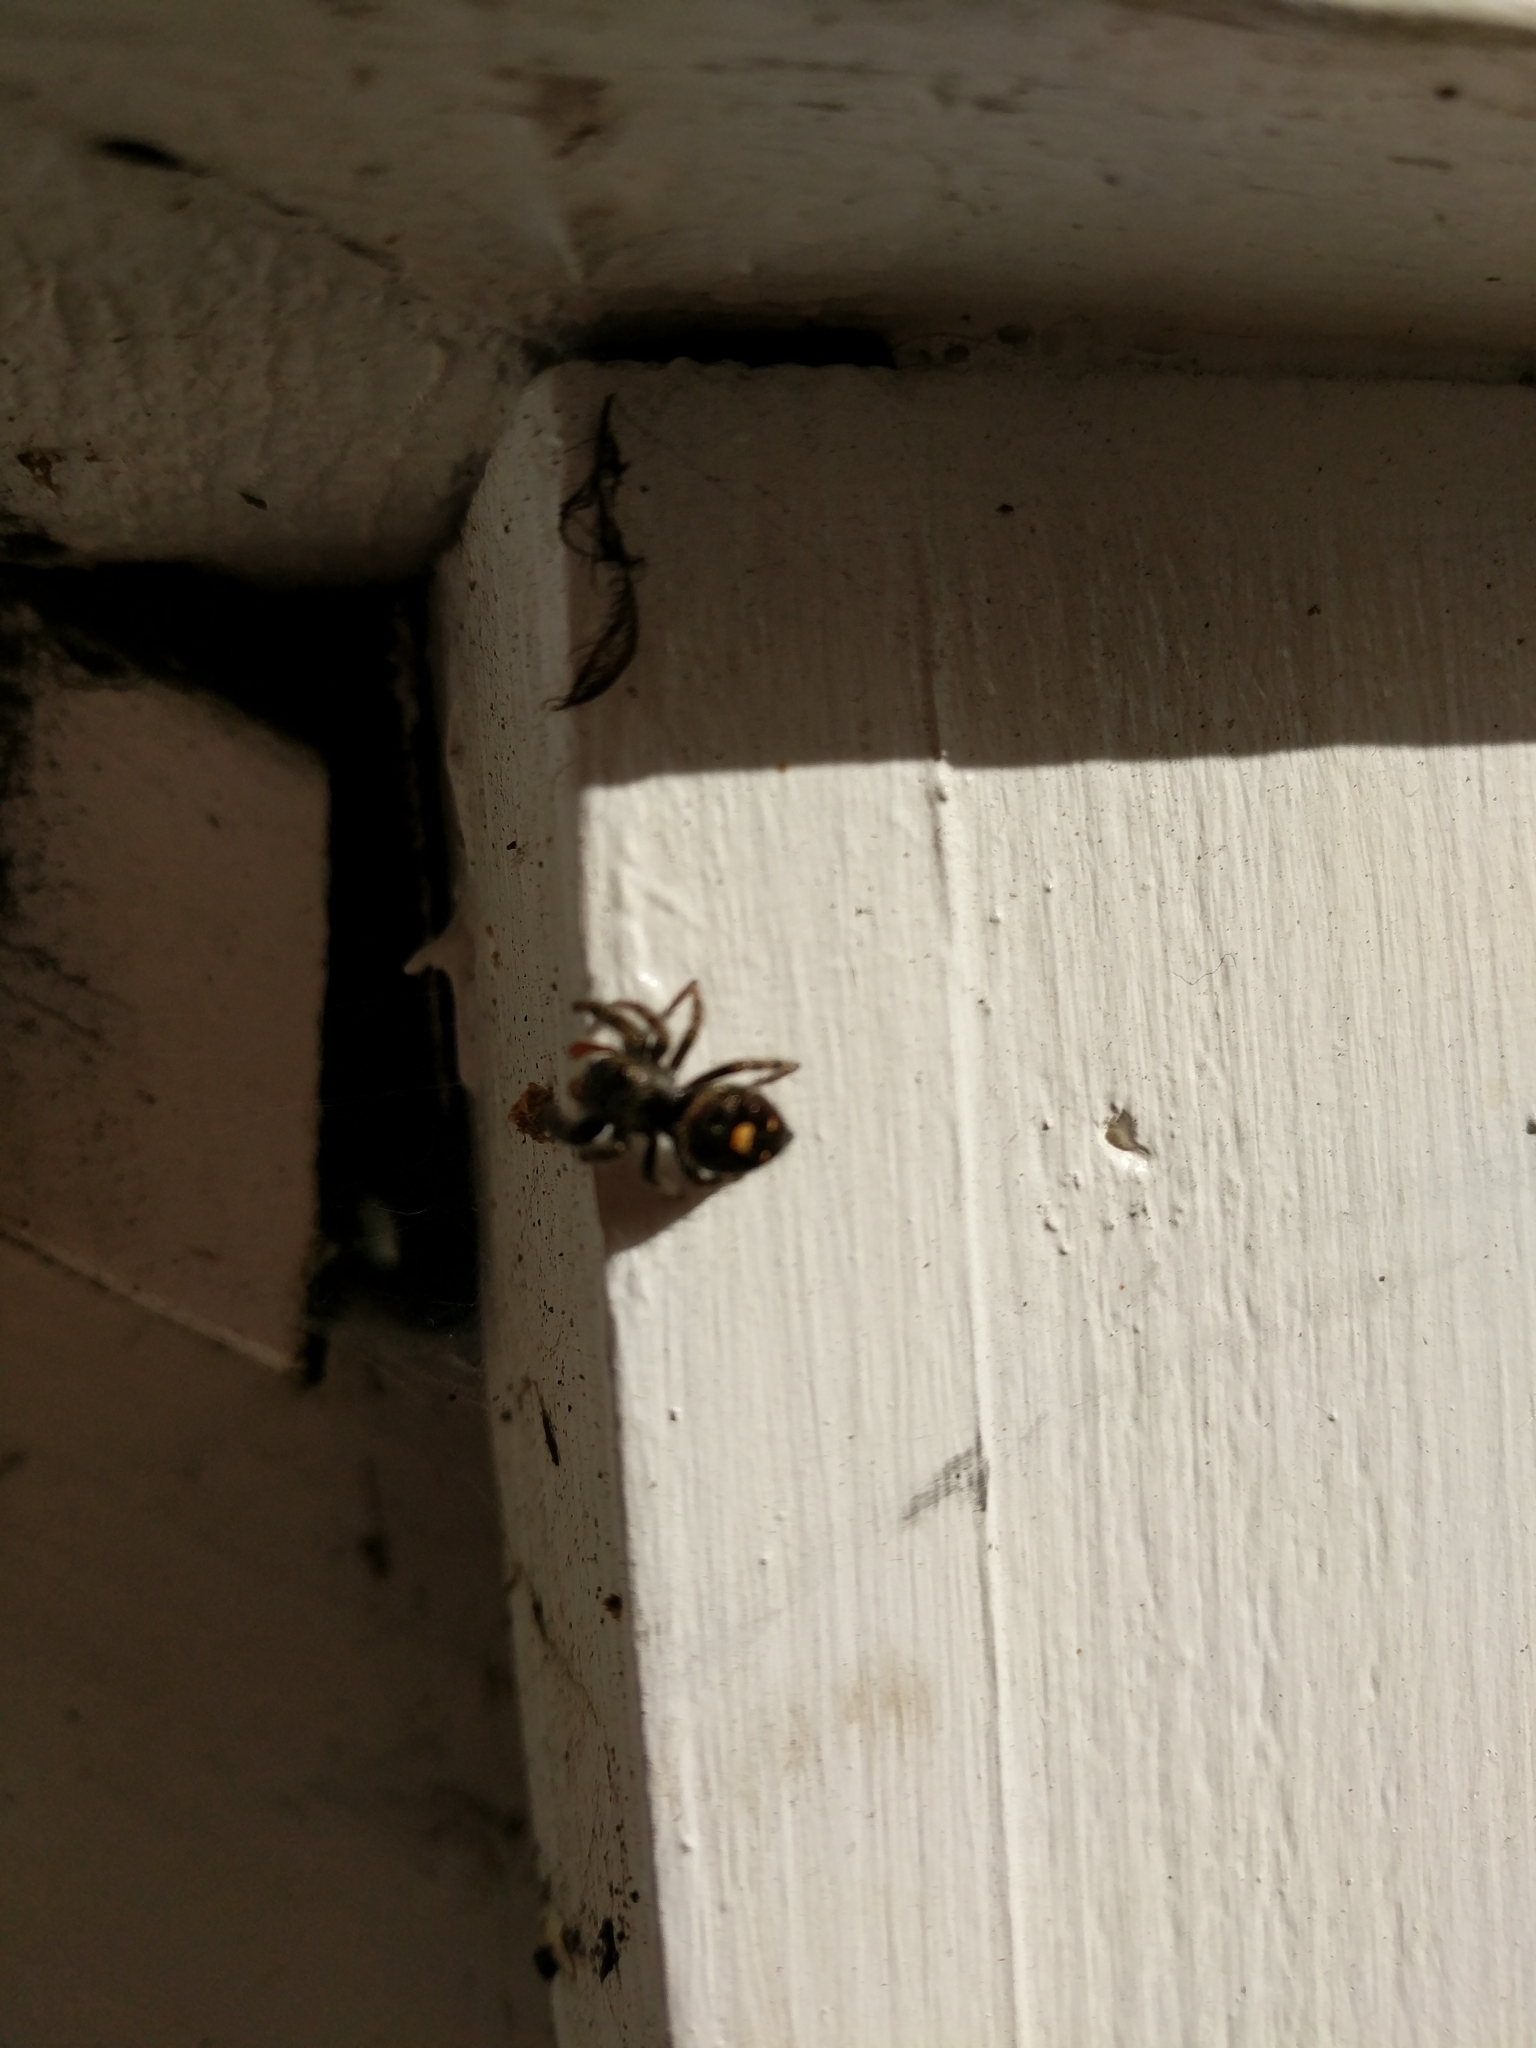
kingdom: Animalia
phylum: Arthropoda
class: Arachnida
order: Araneae
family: Salticidae
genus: Phidippus
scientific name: Phidippus audax
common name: Bold jumper
